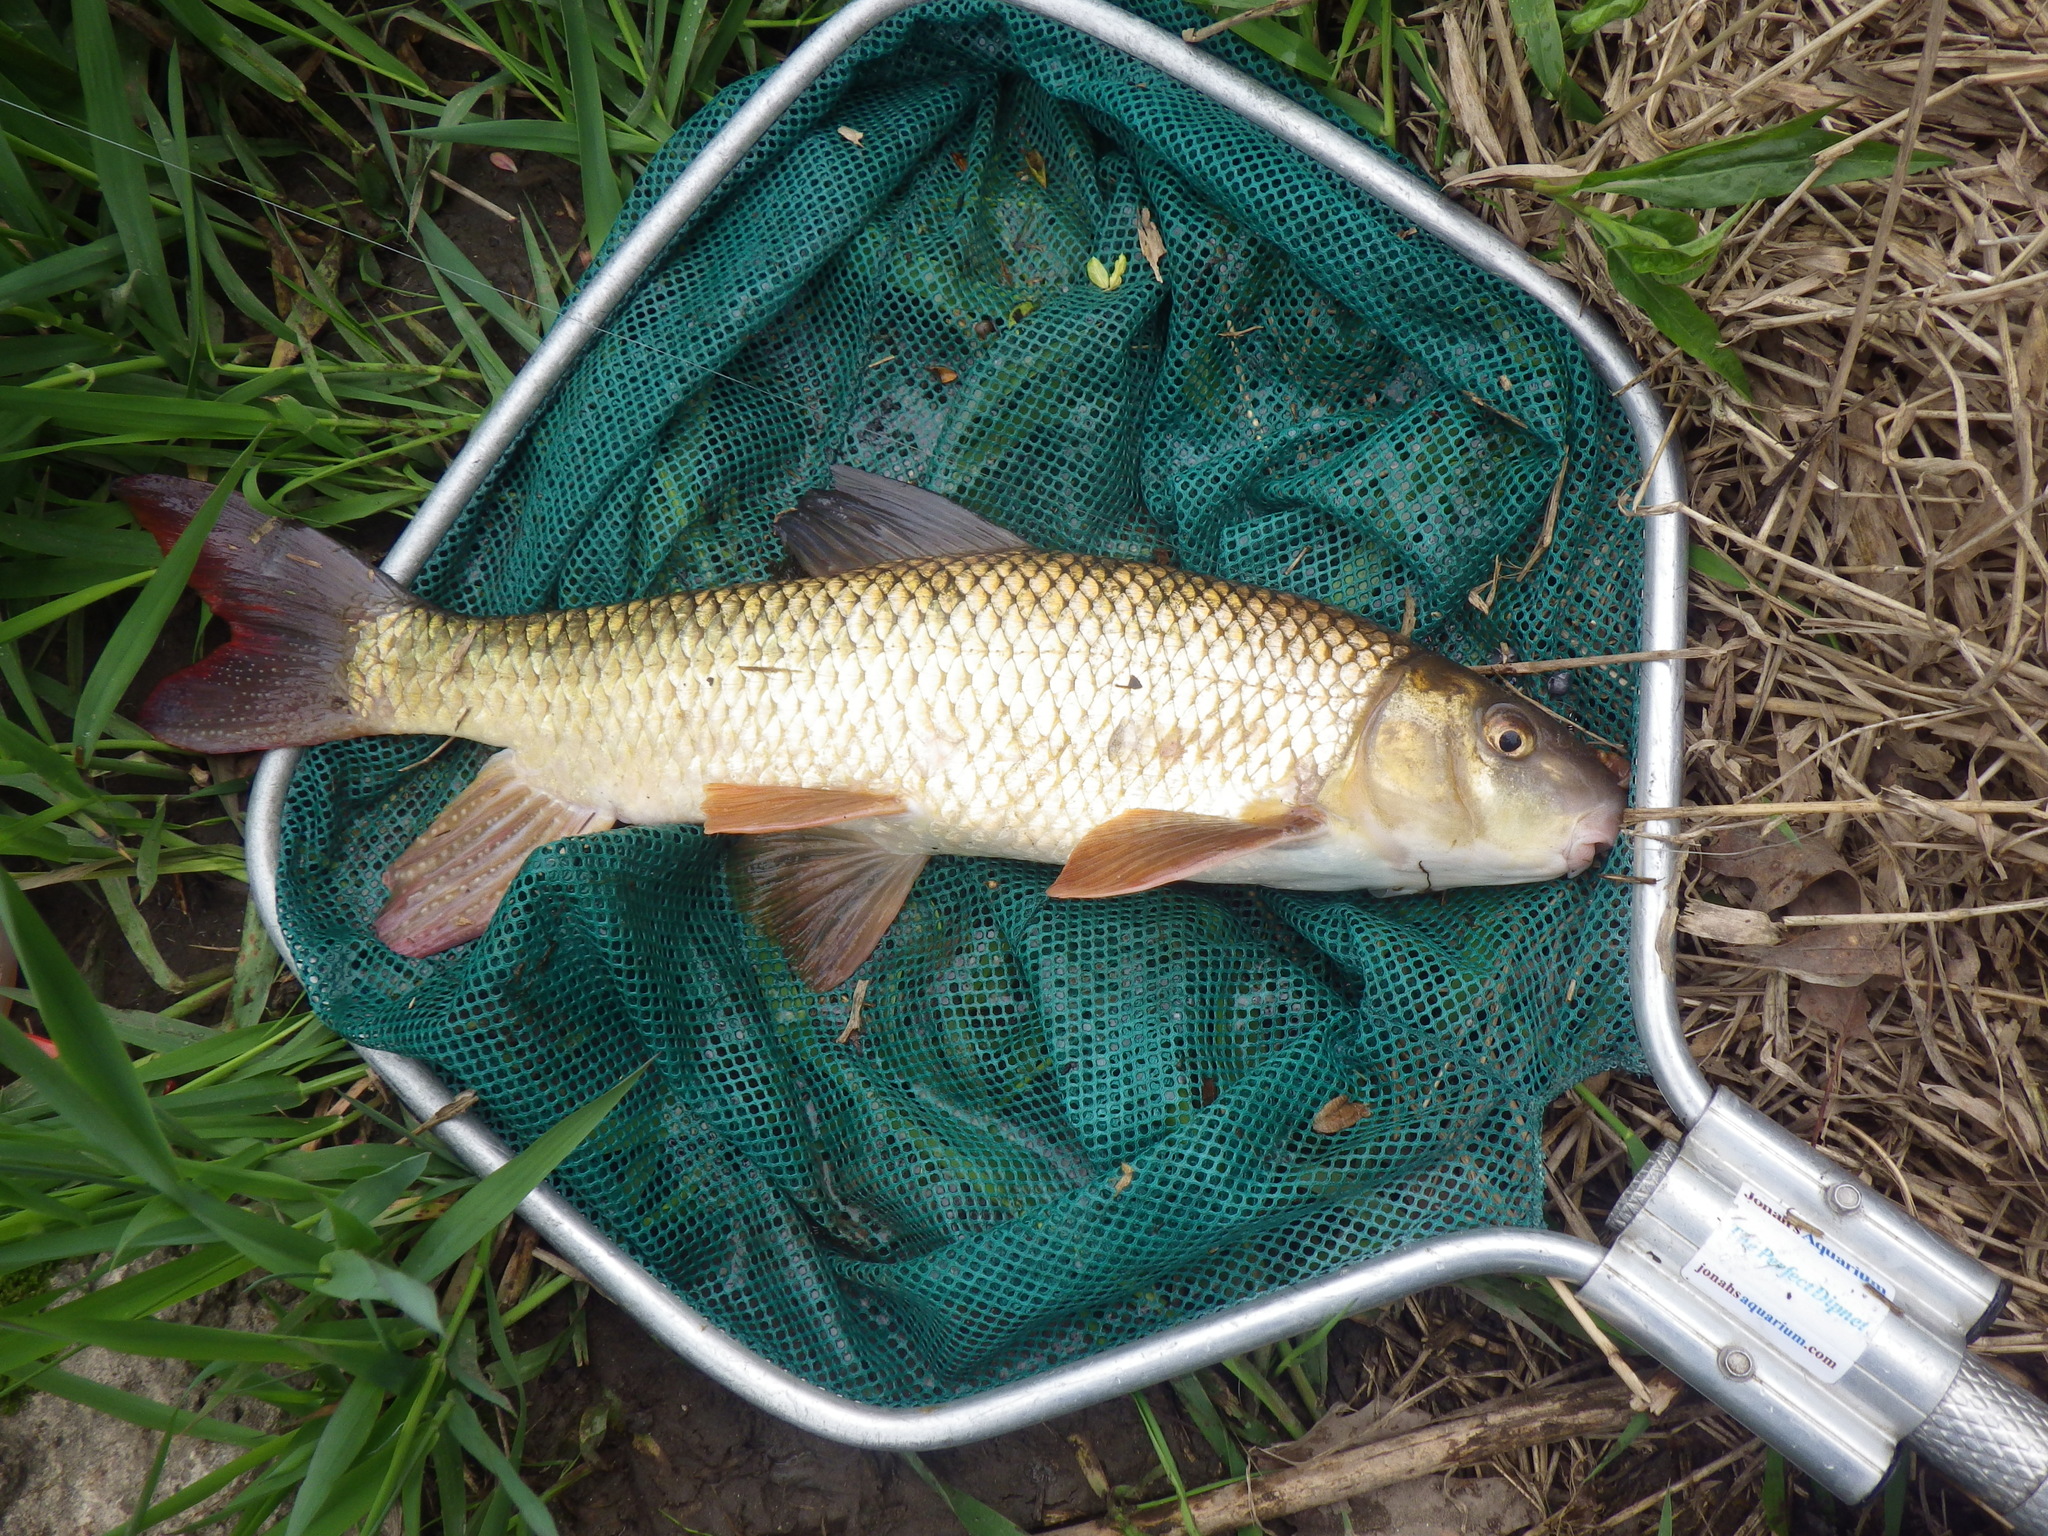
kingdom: Animalia
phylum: Chordata
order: Cypriniformes
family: Catostomidae
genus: Moxostoma
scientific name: Moxostoma macrolepidotum
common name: Shorthead redhorse
